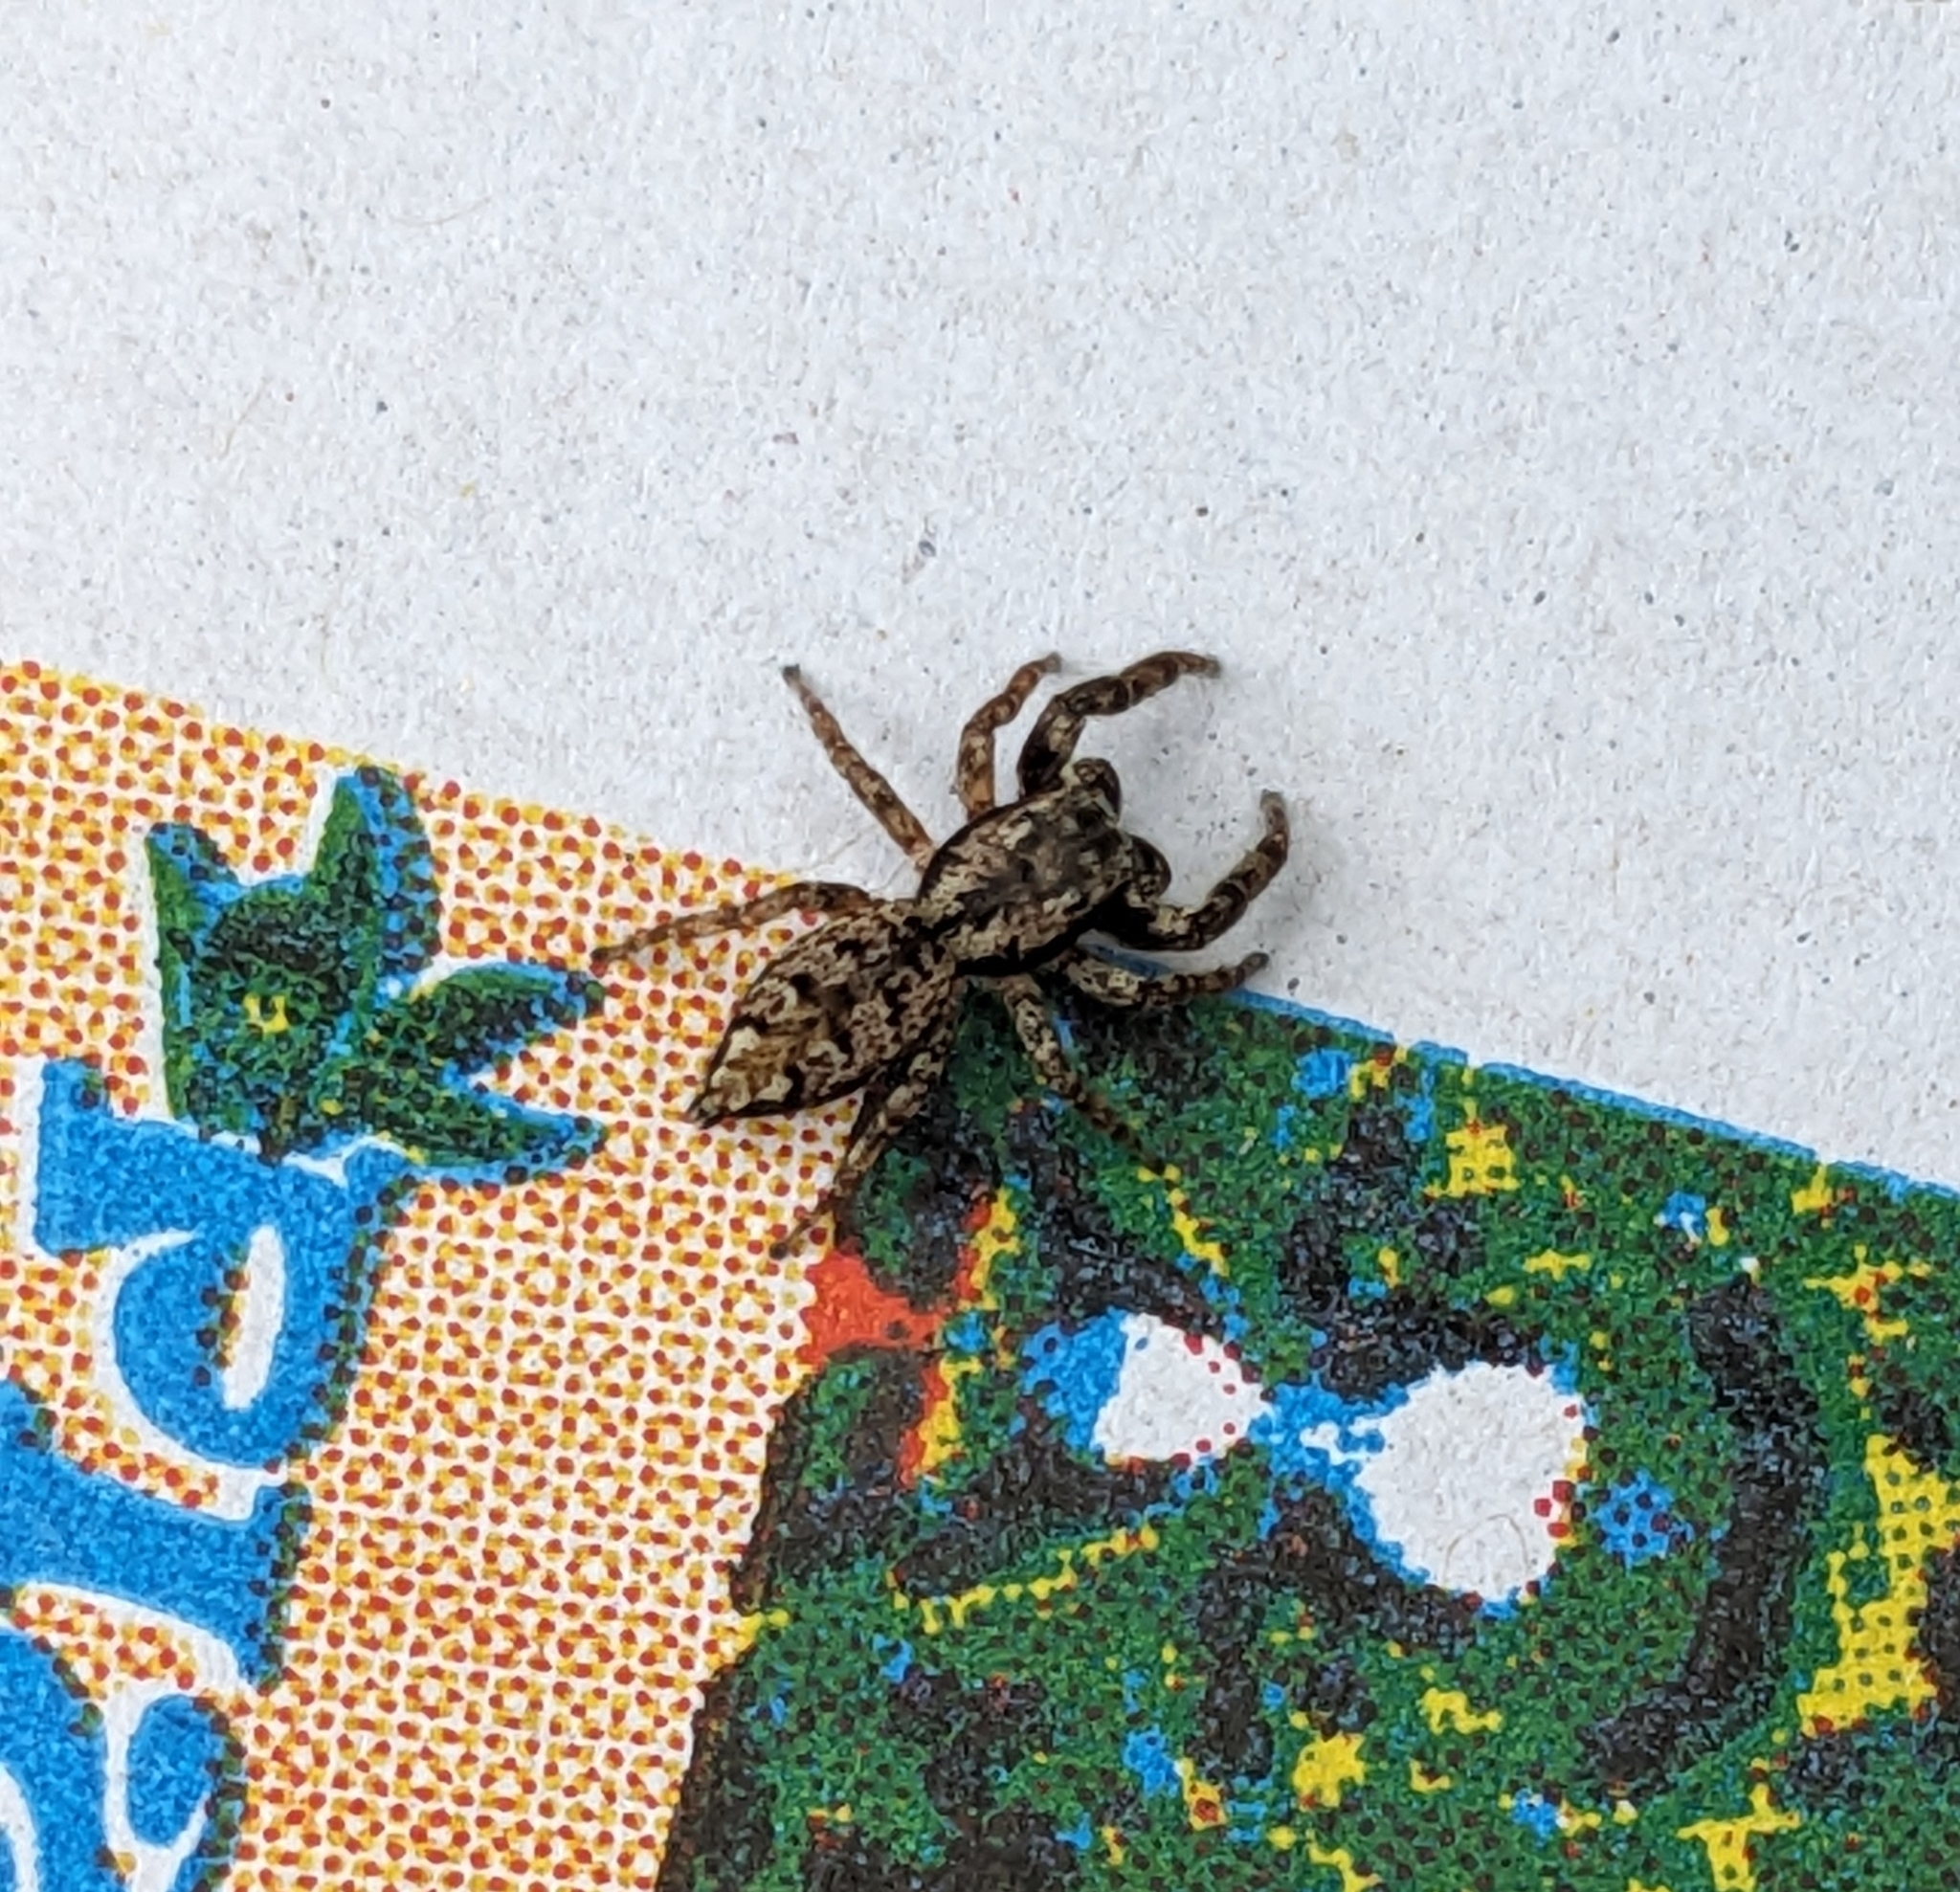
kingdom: Animalia
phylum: Arthropoda
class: Arachnida
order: Araneae
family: Salticidae
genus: Marpissa
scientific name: Marpissa muscosa
